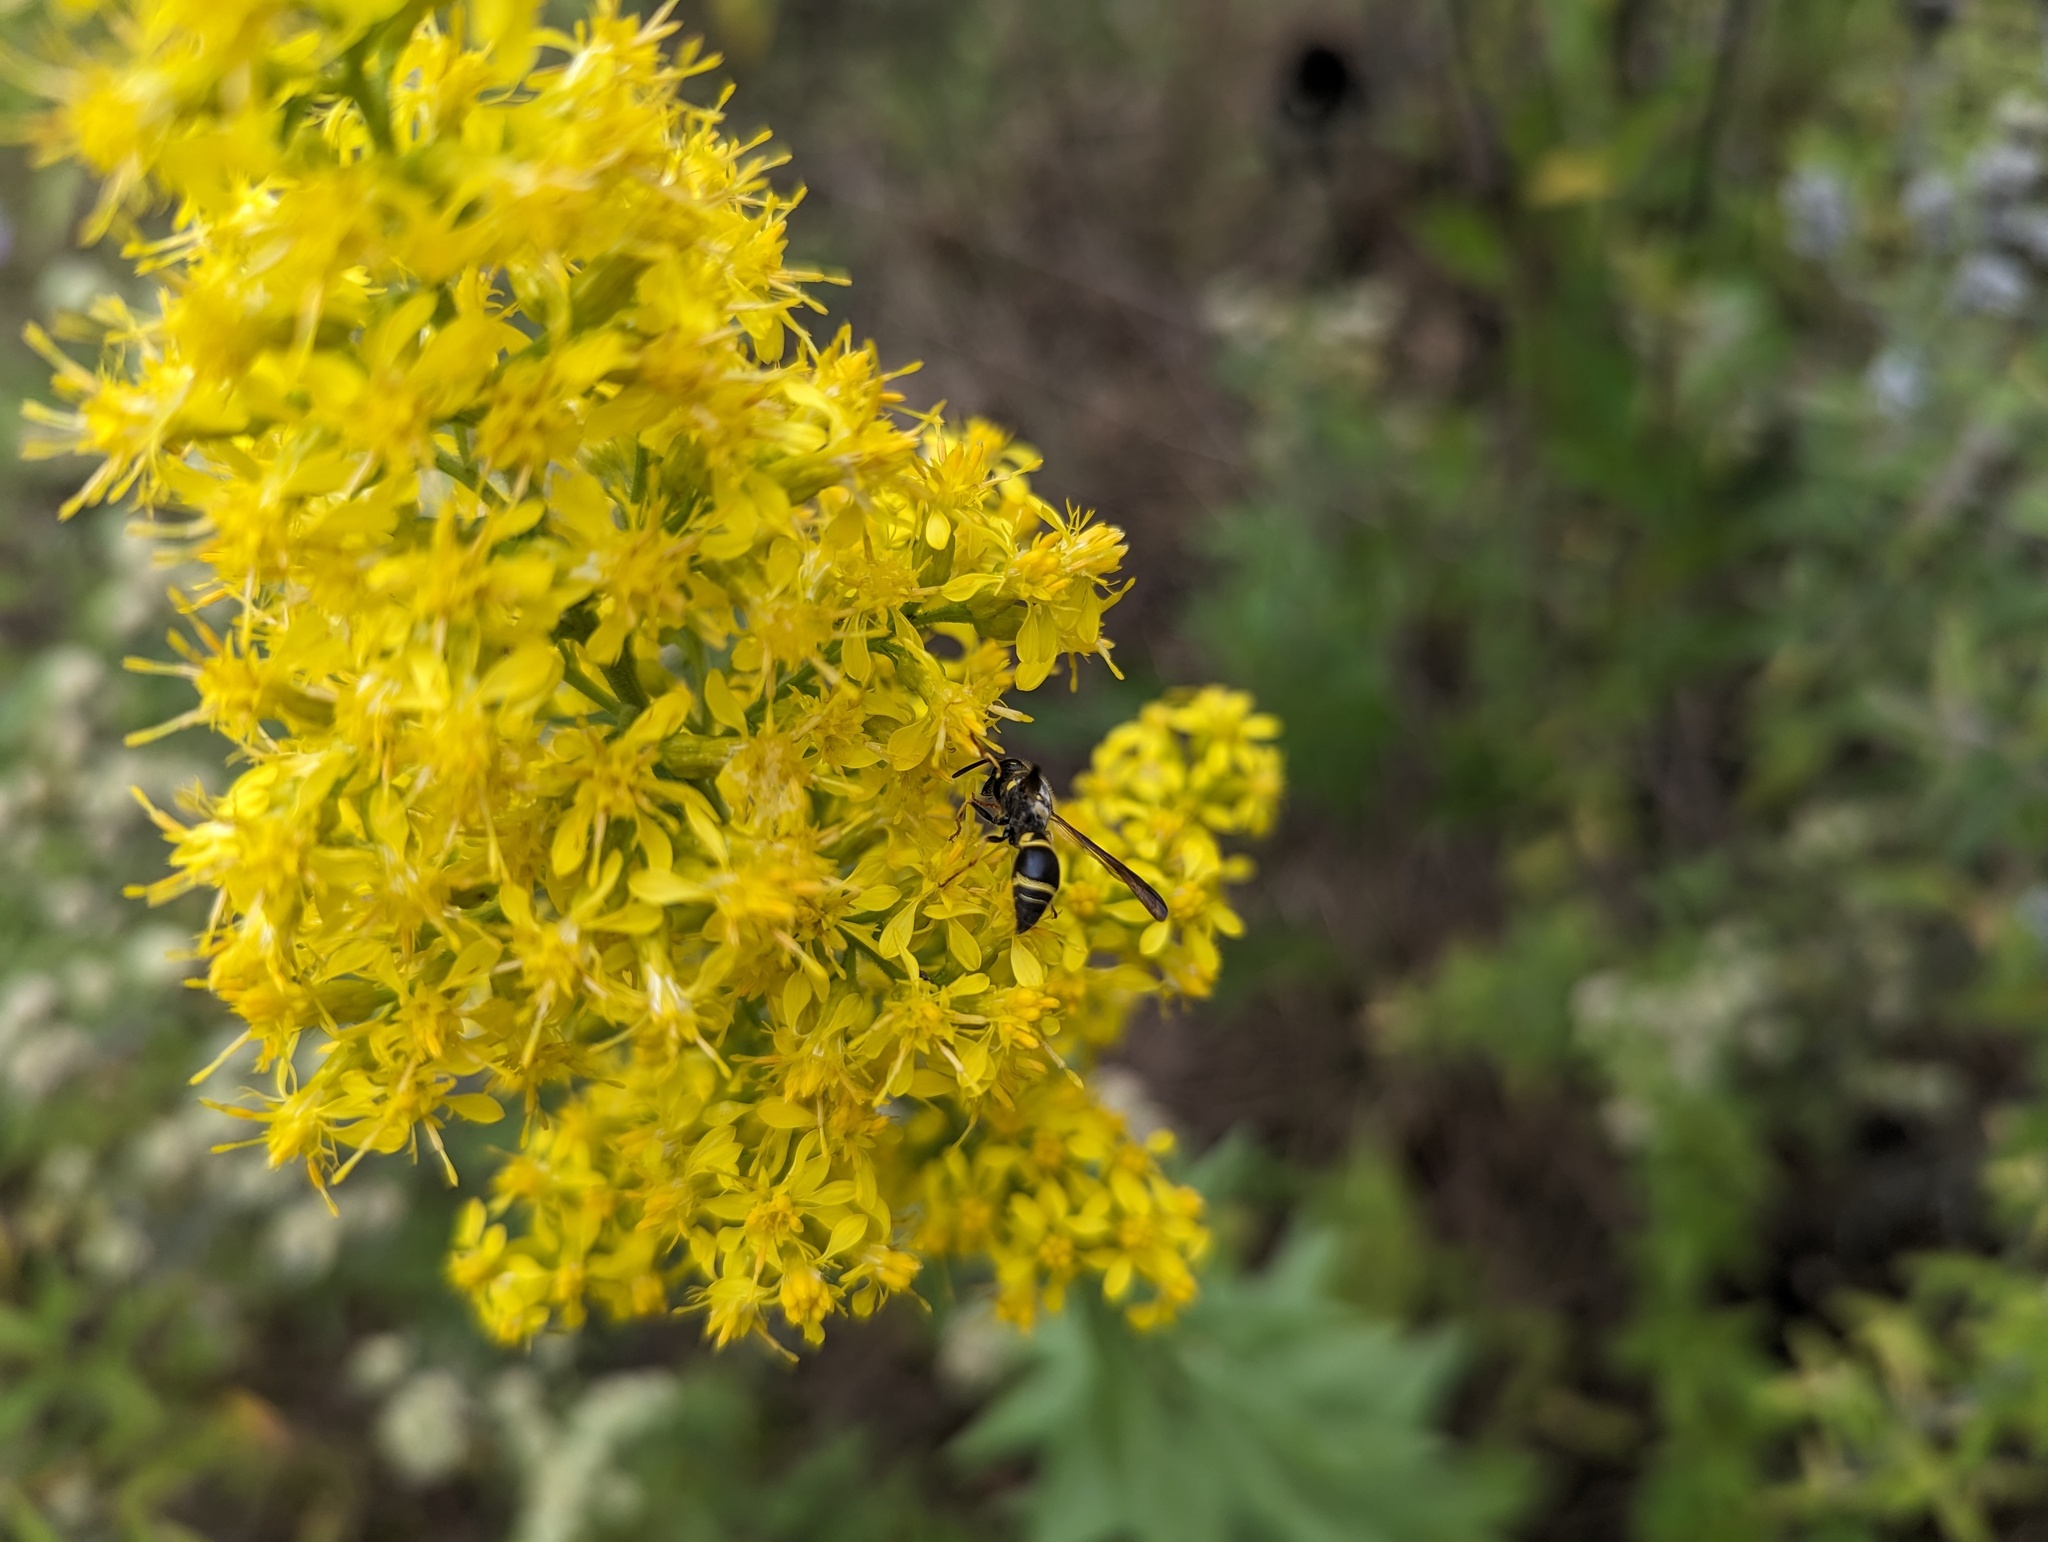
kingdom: Animalia
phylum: Arthropoda
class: Insecta
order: Hymenoptera
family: Vespidae
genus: Ancistrocerus
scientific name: Ancistrocerus campestris
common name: Smiling mason wasp
